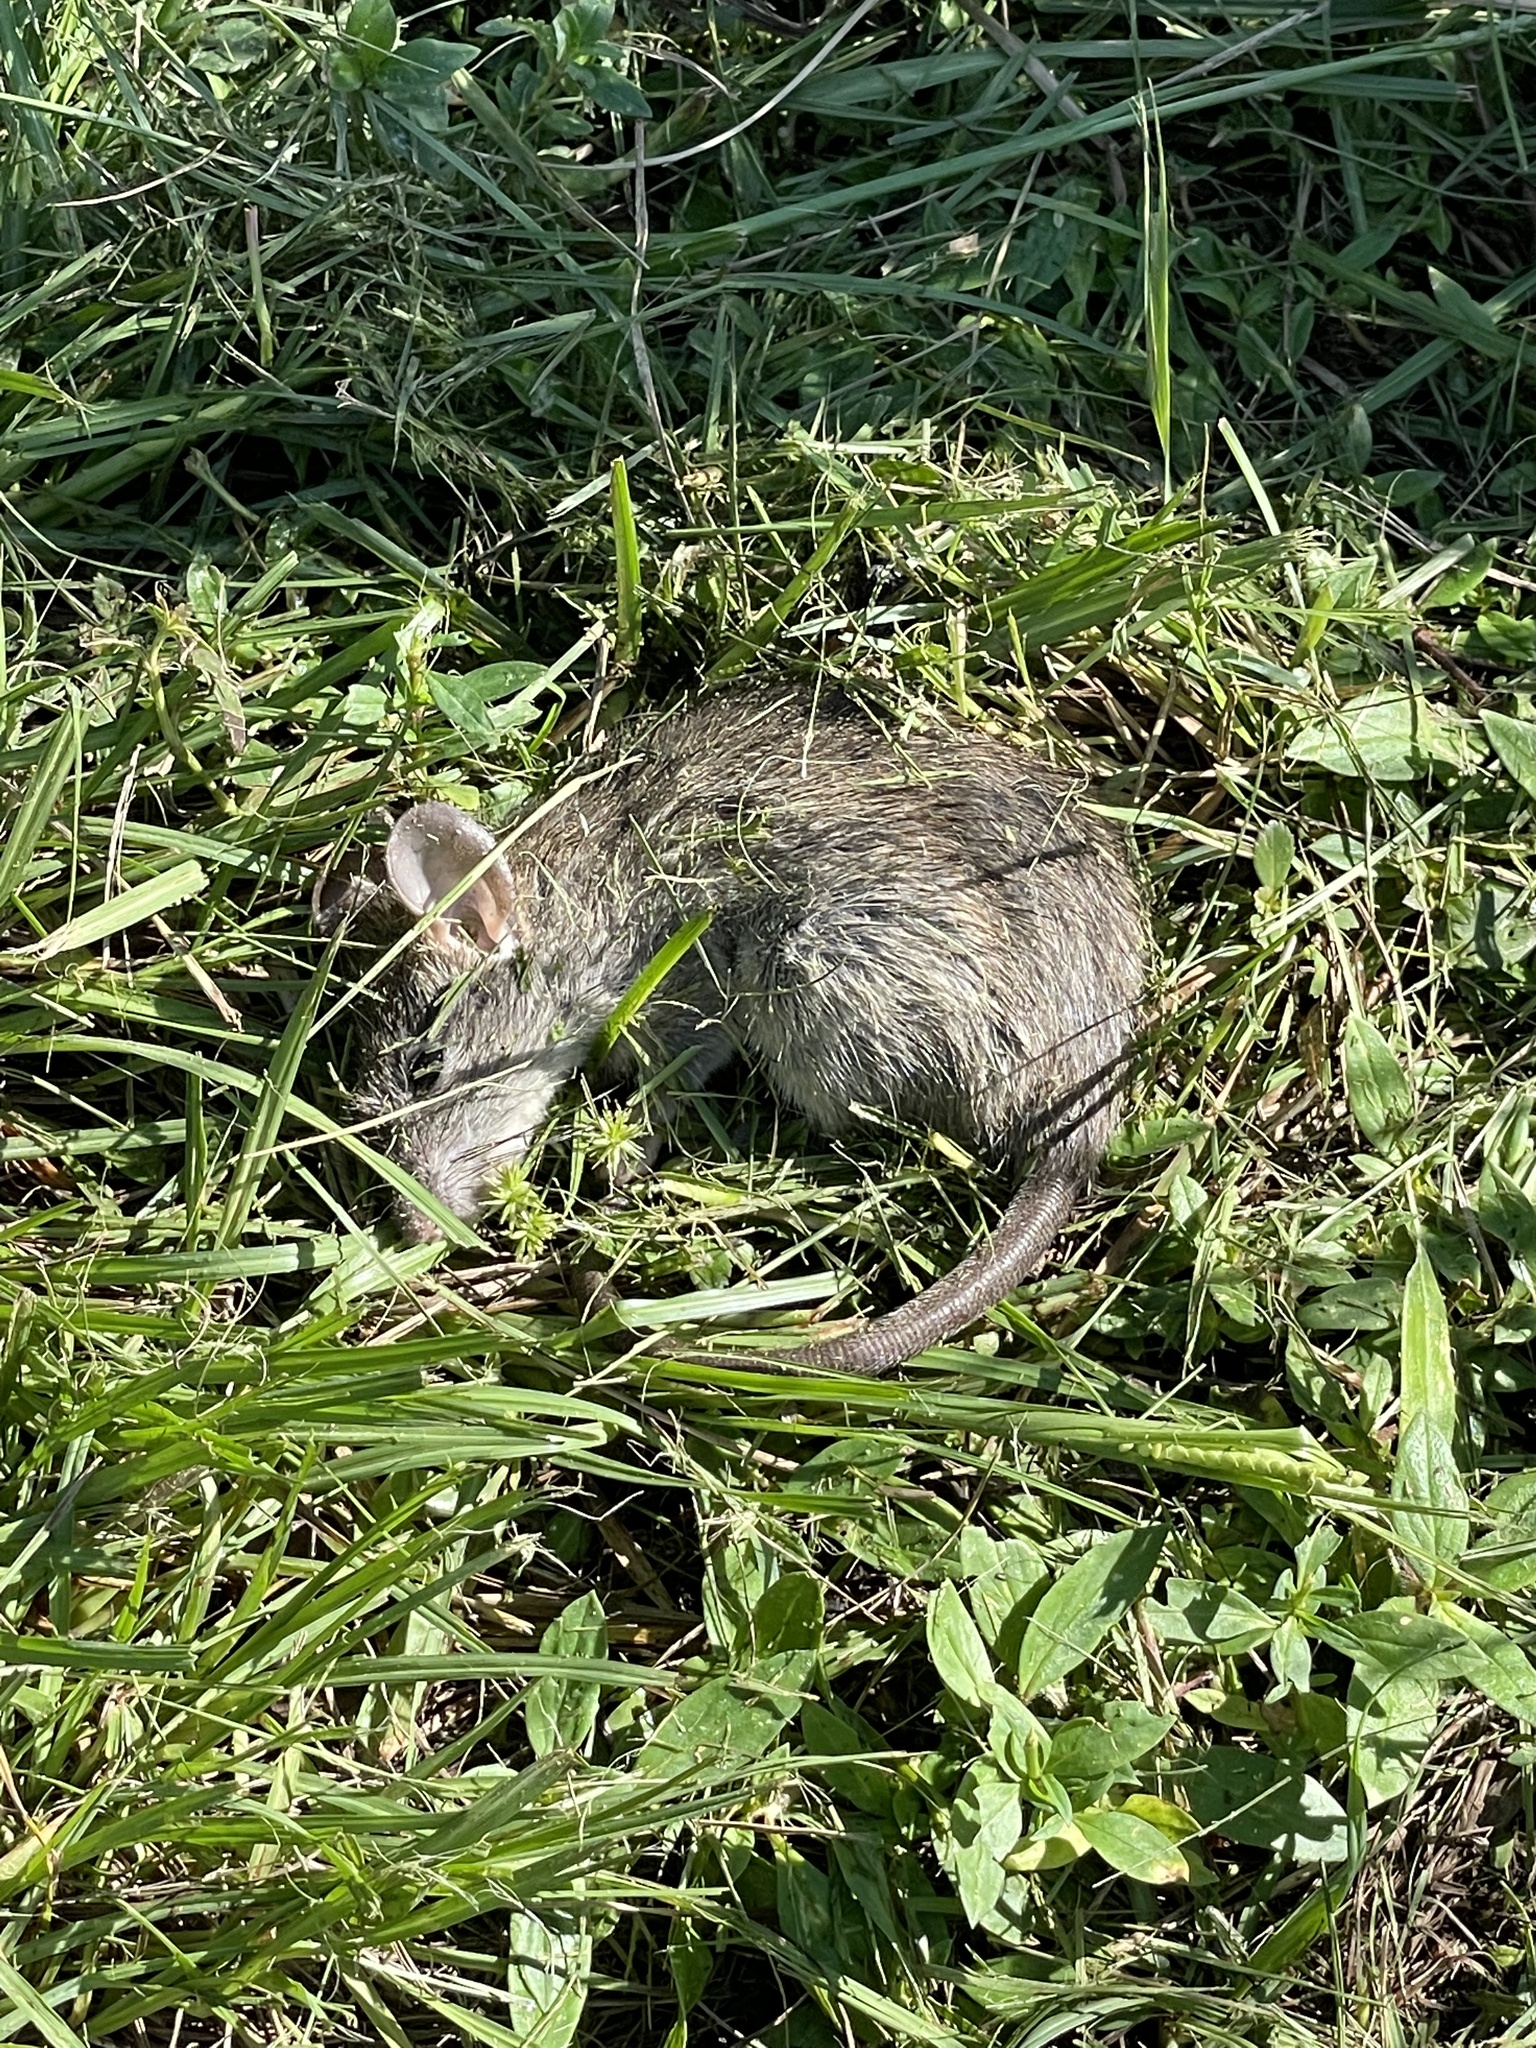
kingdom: Animalia
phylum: Chordata
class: Mammalia
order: Rodentia
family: Muridae
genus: Rattus
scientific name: Rattus rattus
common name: Black rat
